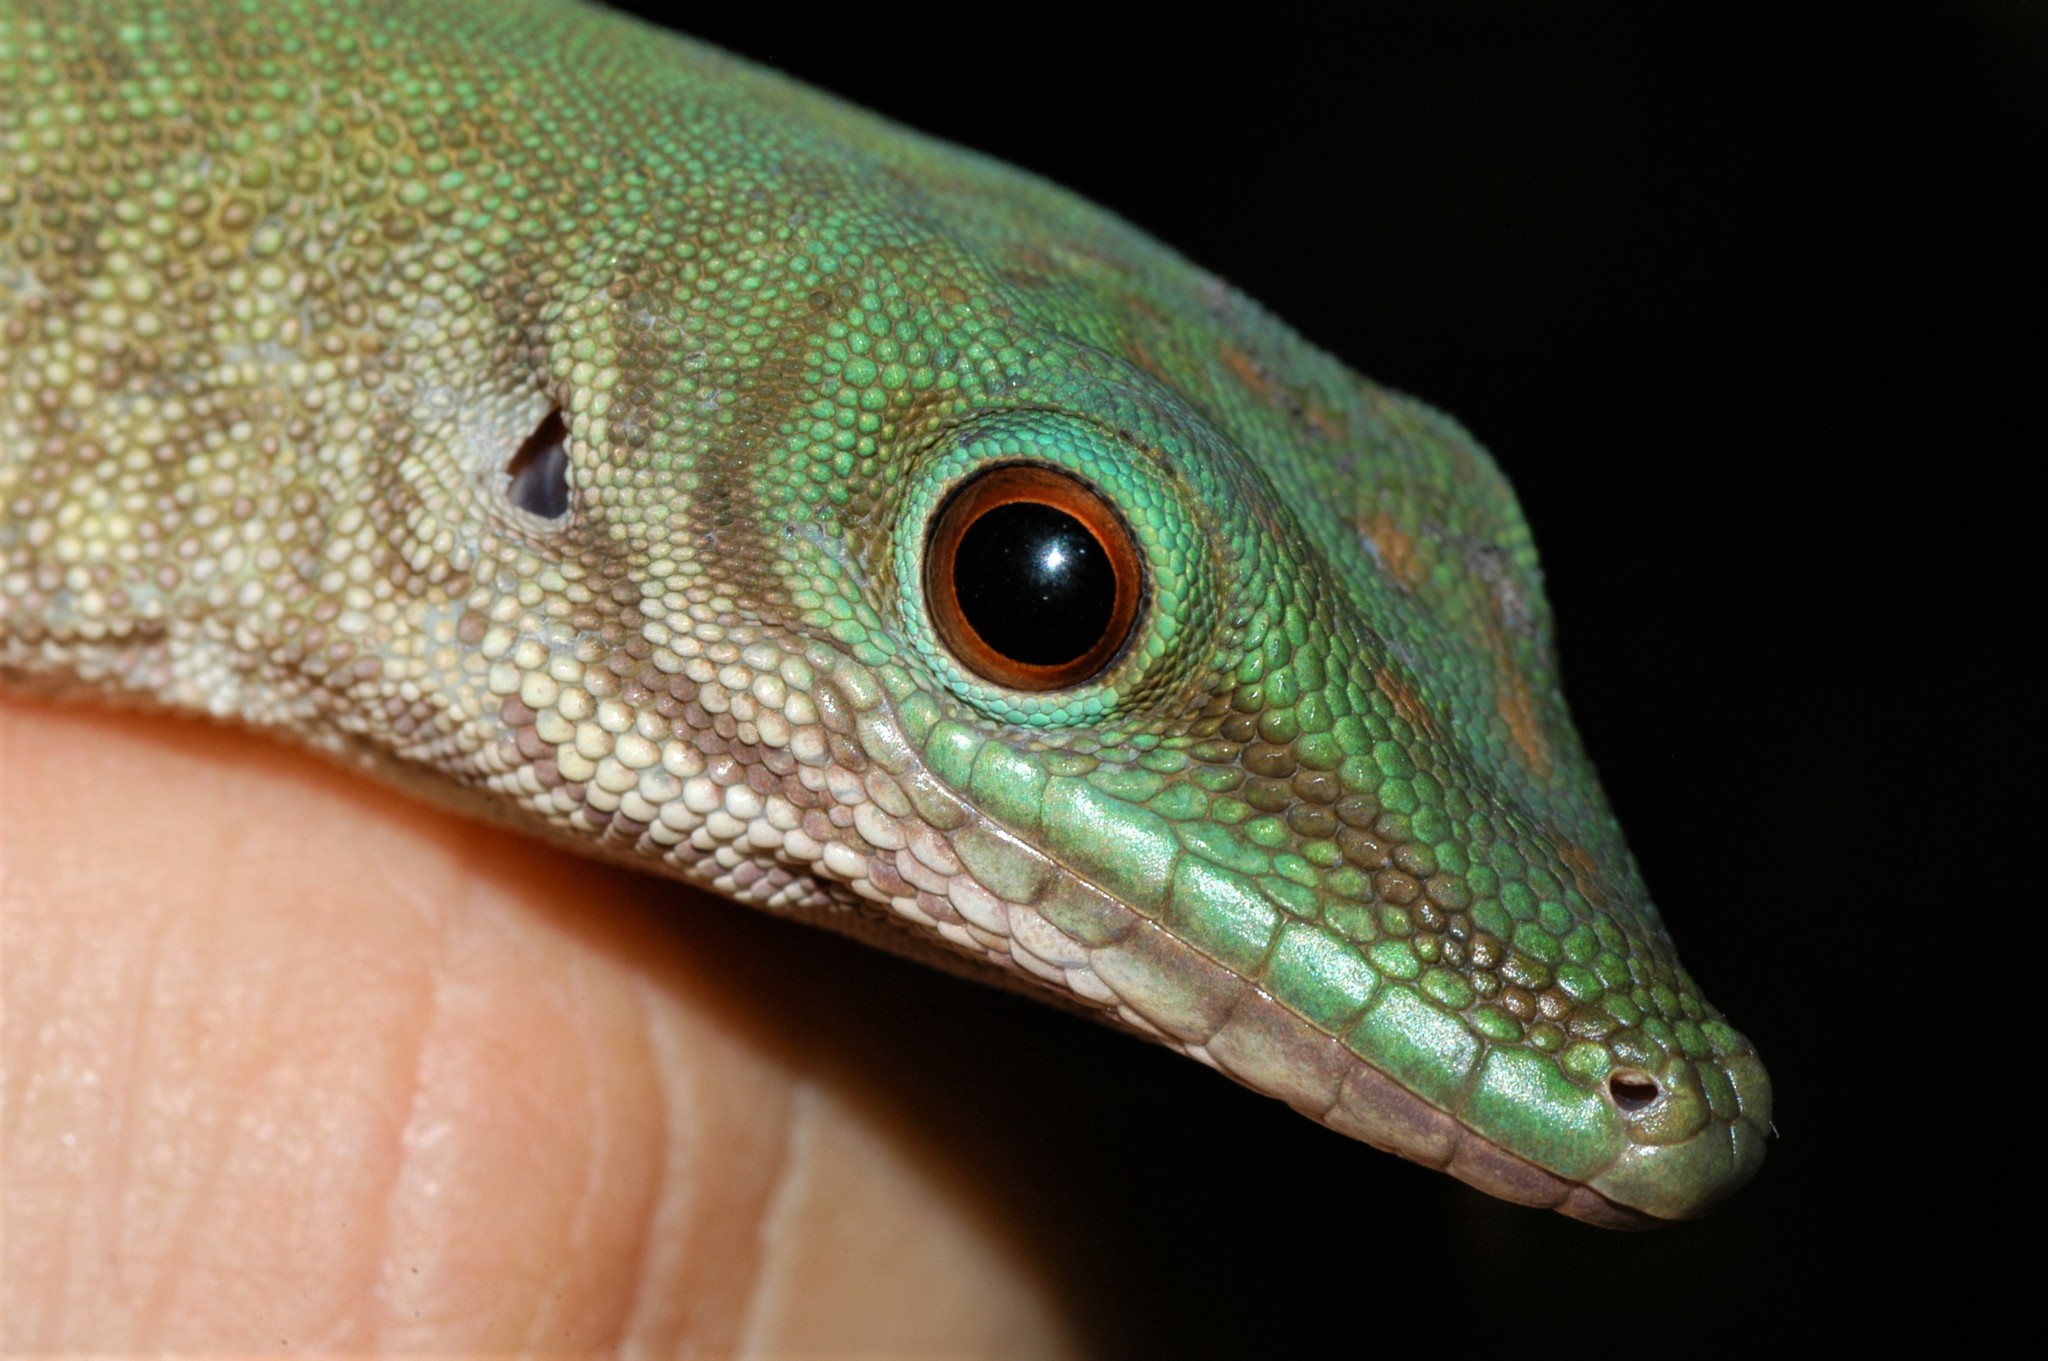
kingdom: Animalia
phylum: Chordata
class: Squamata
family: Gekkonidae
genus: Phelsuma
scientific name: Phelsuma kochi
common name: Madagascar day gecko
